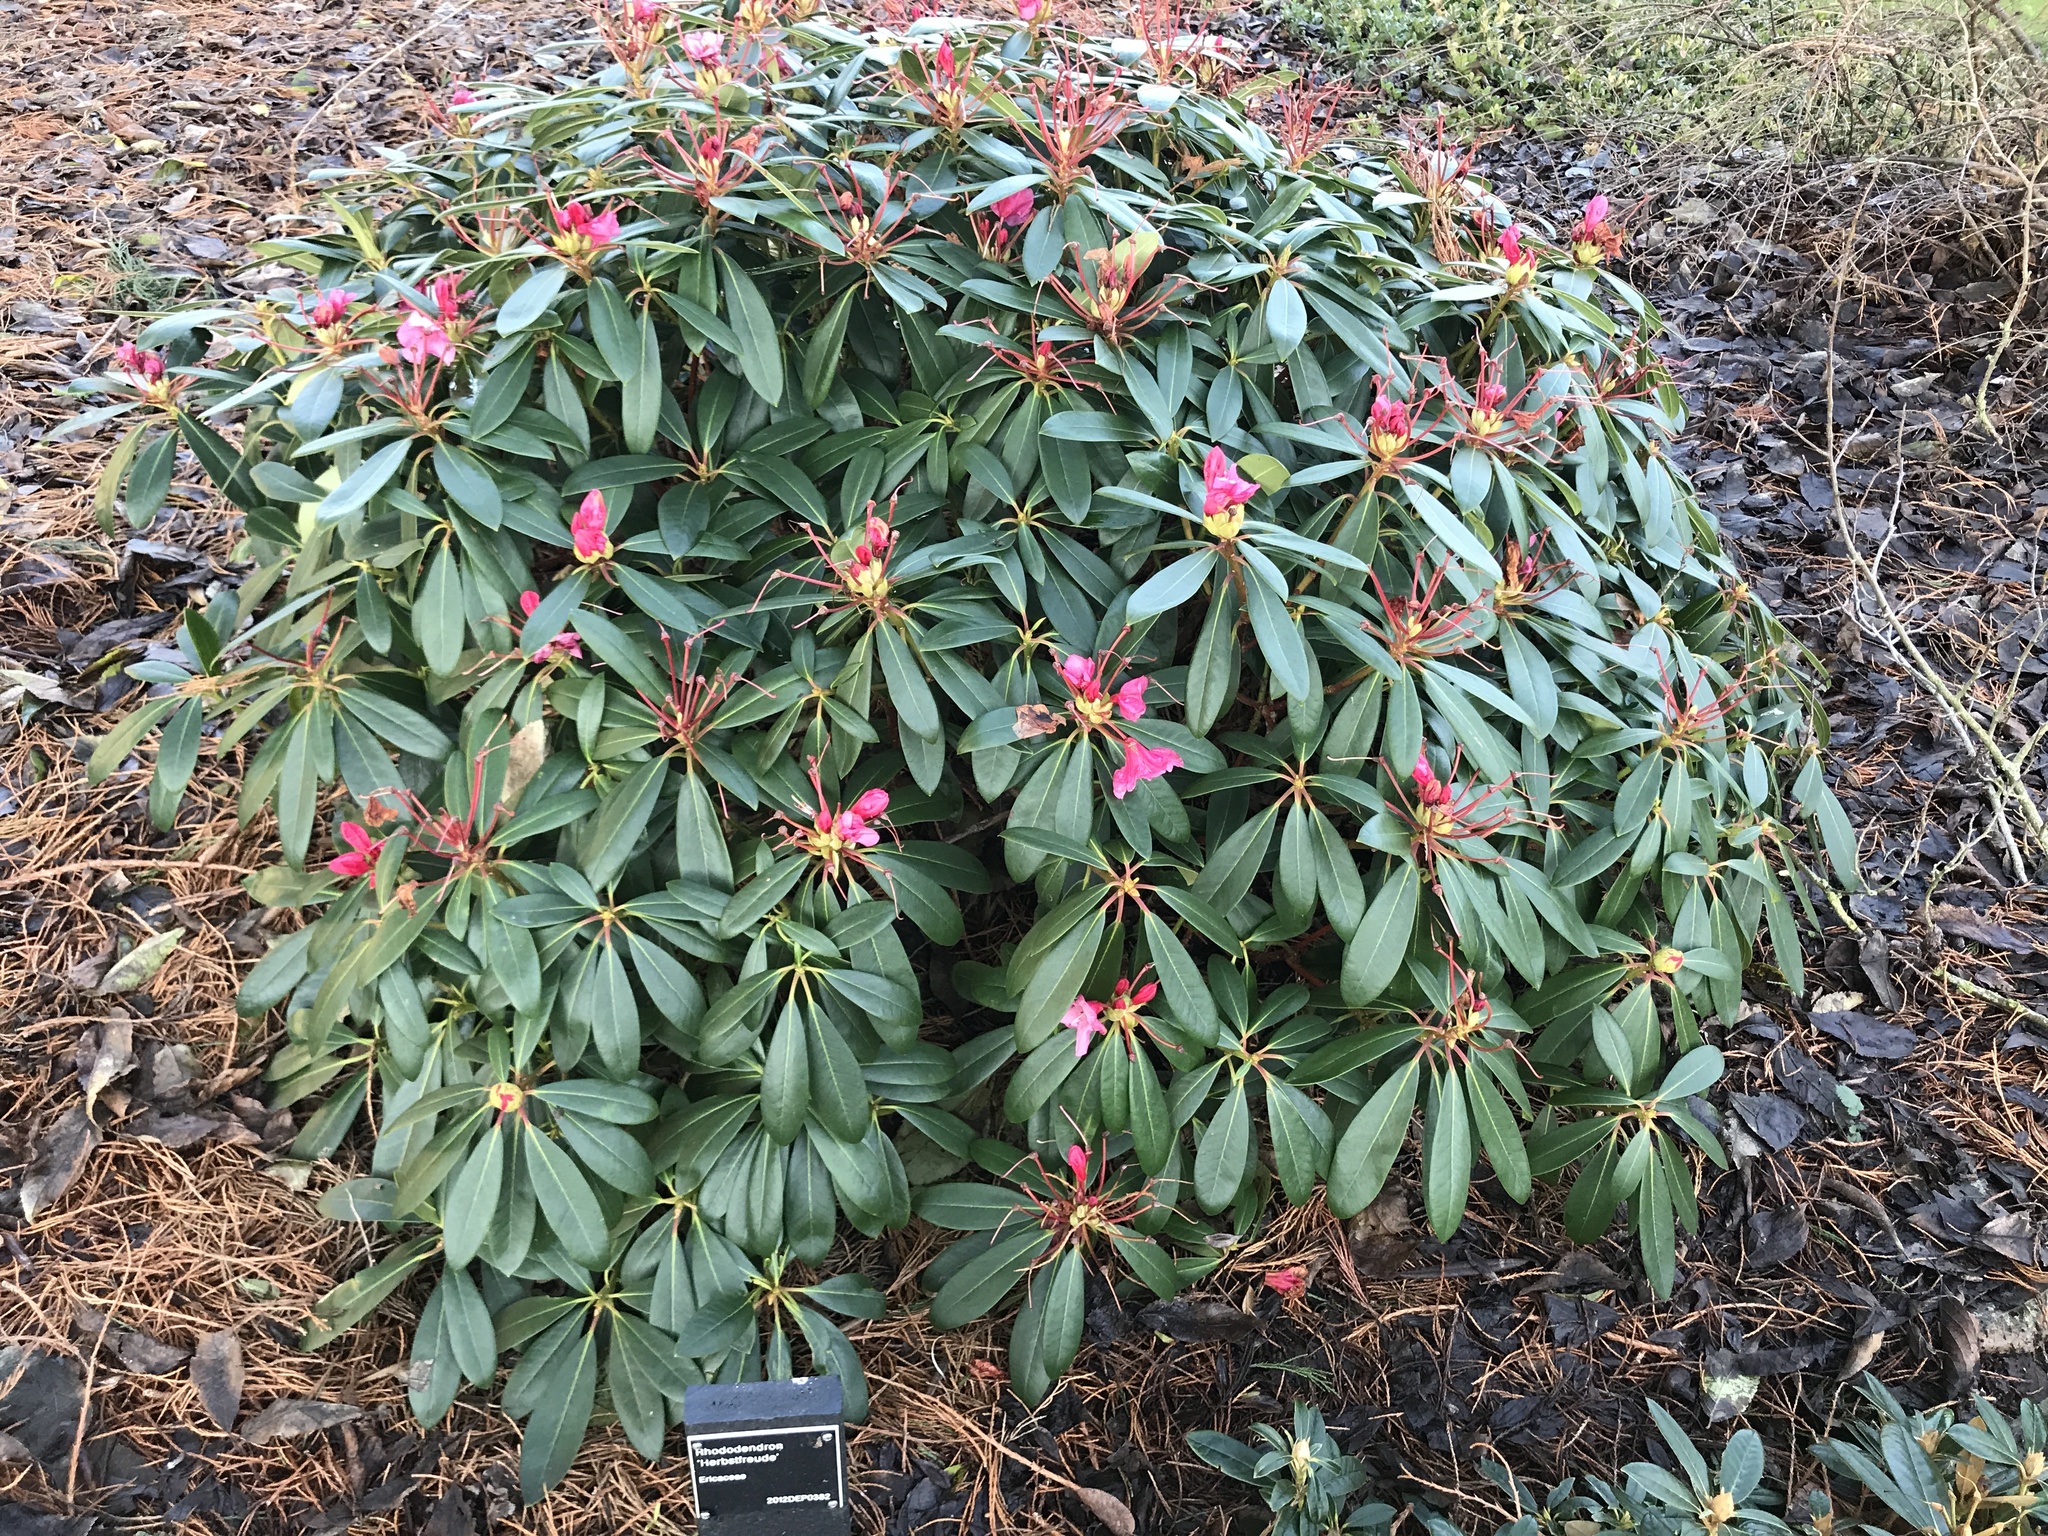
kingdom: Plantae
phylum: Tracheophyta
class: Magnoliopsida
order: Ericales
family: Ericaceae
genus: Rhododendron
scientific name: Rhododendron ponticum
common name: Rhododendron
